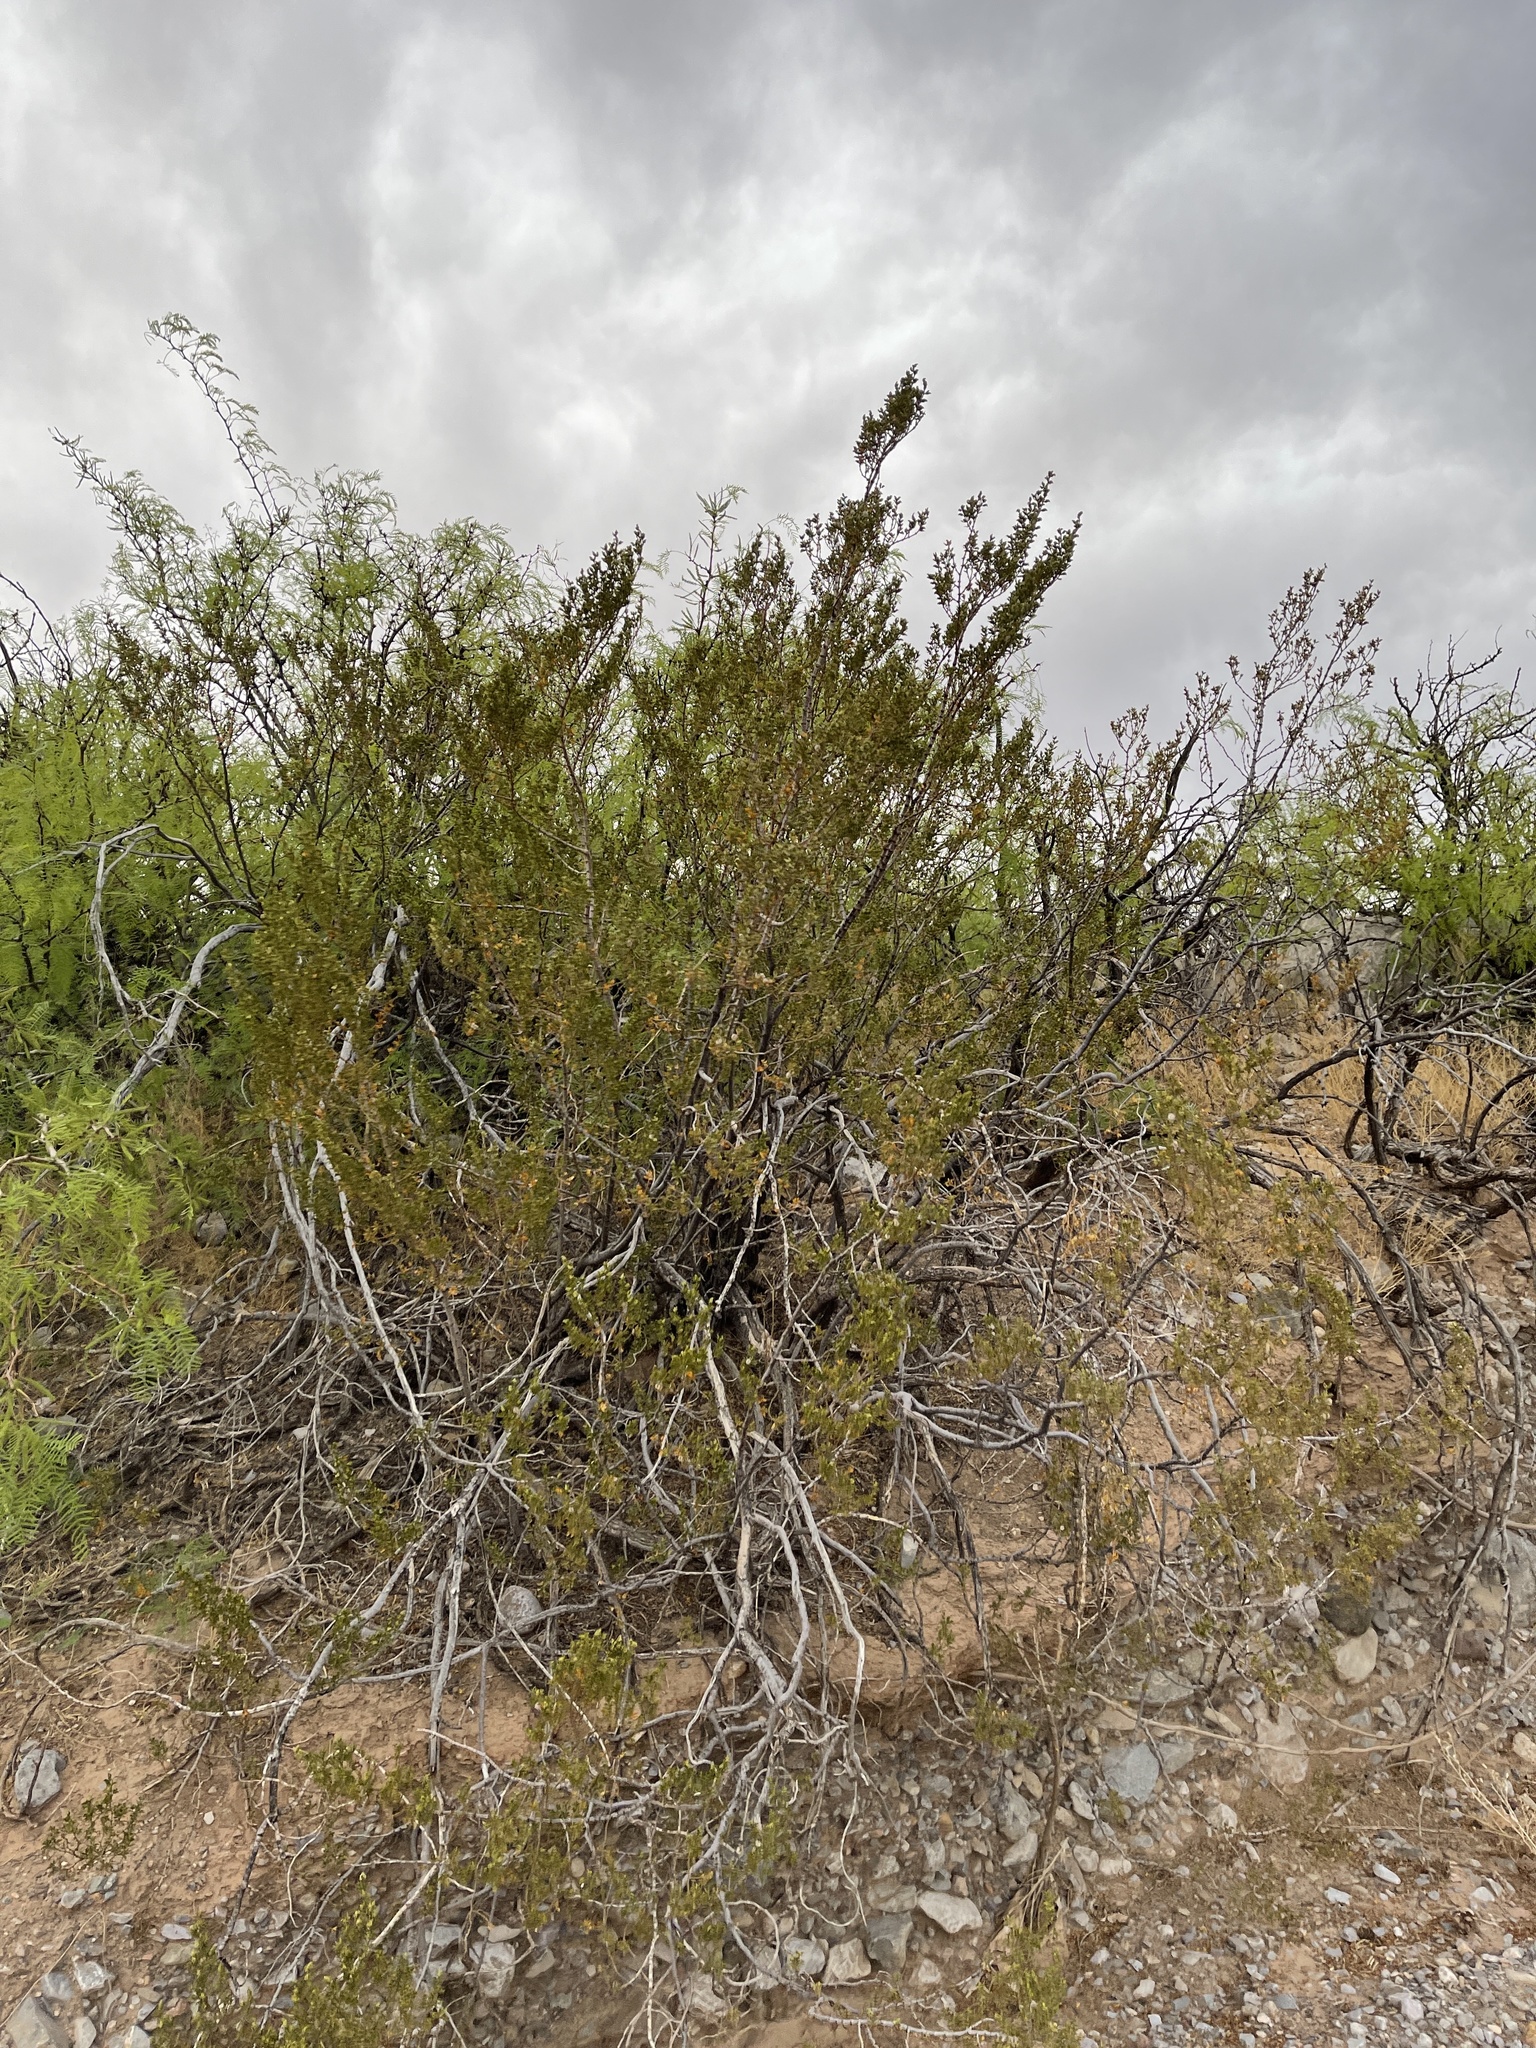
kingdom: Plantae
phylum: Tracheophyta
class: Magnoliopsida
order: Zygophyllales
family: Zygophyllaceae
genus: Larrea
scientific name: Larrea tridentata
